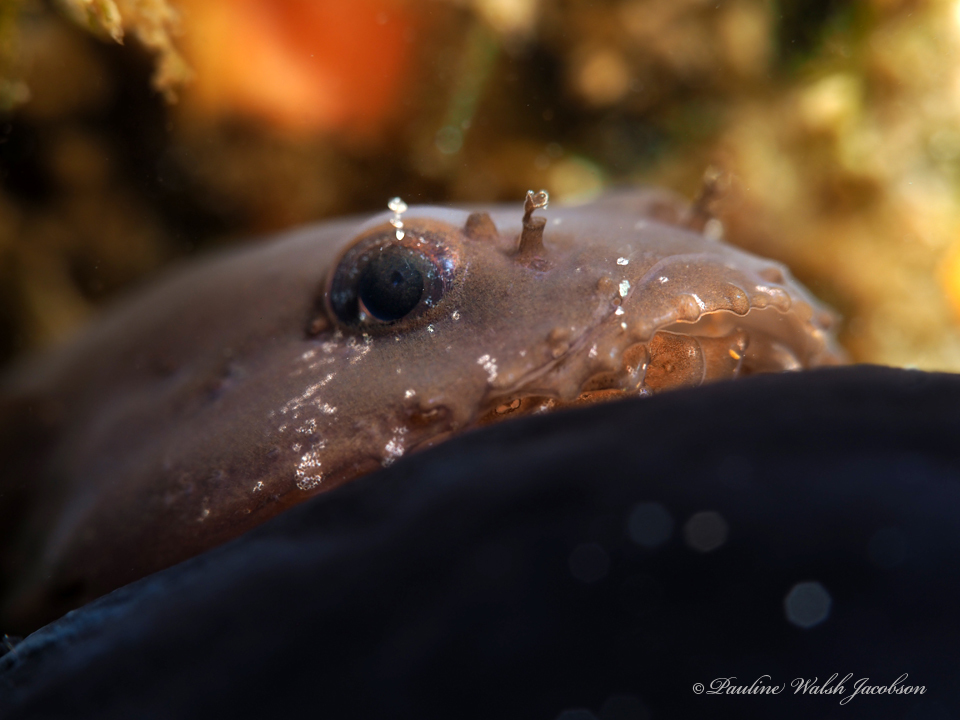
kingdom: Animalia
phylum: Chordata
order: Gobiesociformes
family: Gobiesocidae
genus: Gobiesox
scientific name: Gobiesox strumosus
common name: Skilletfish
